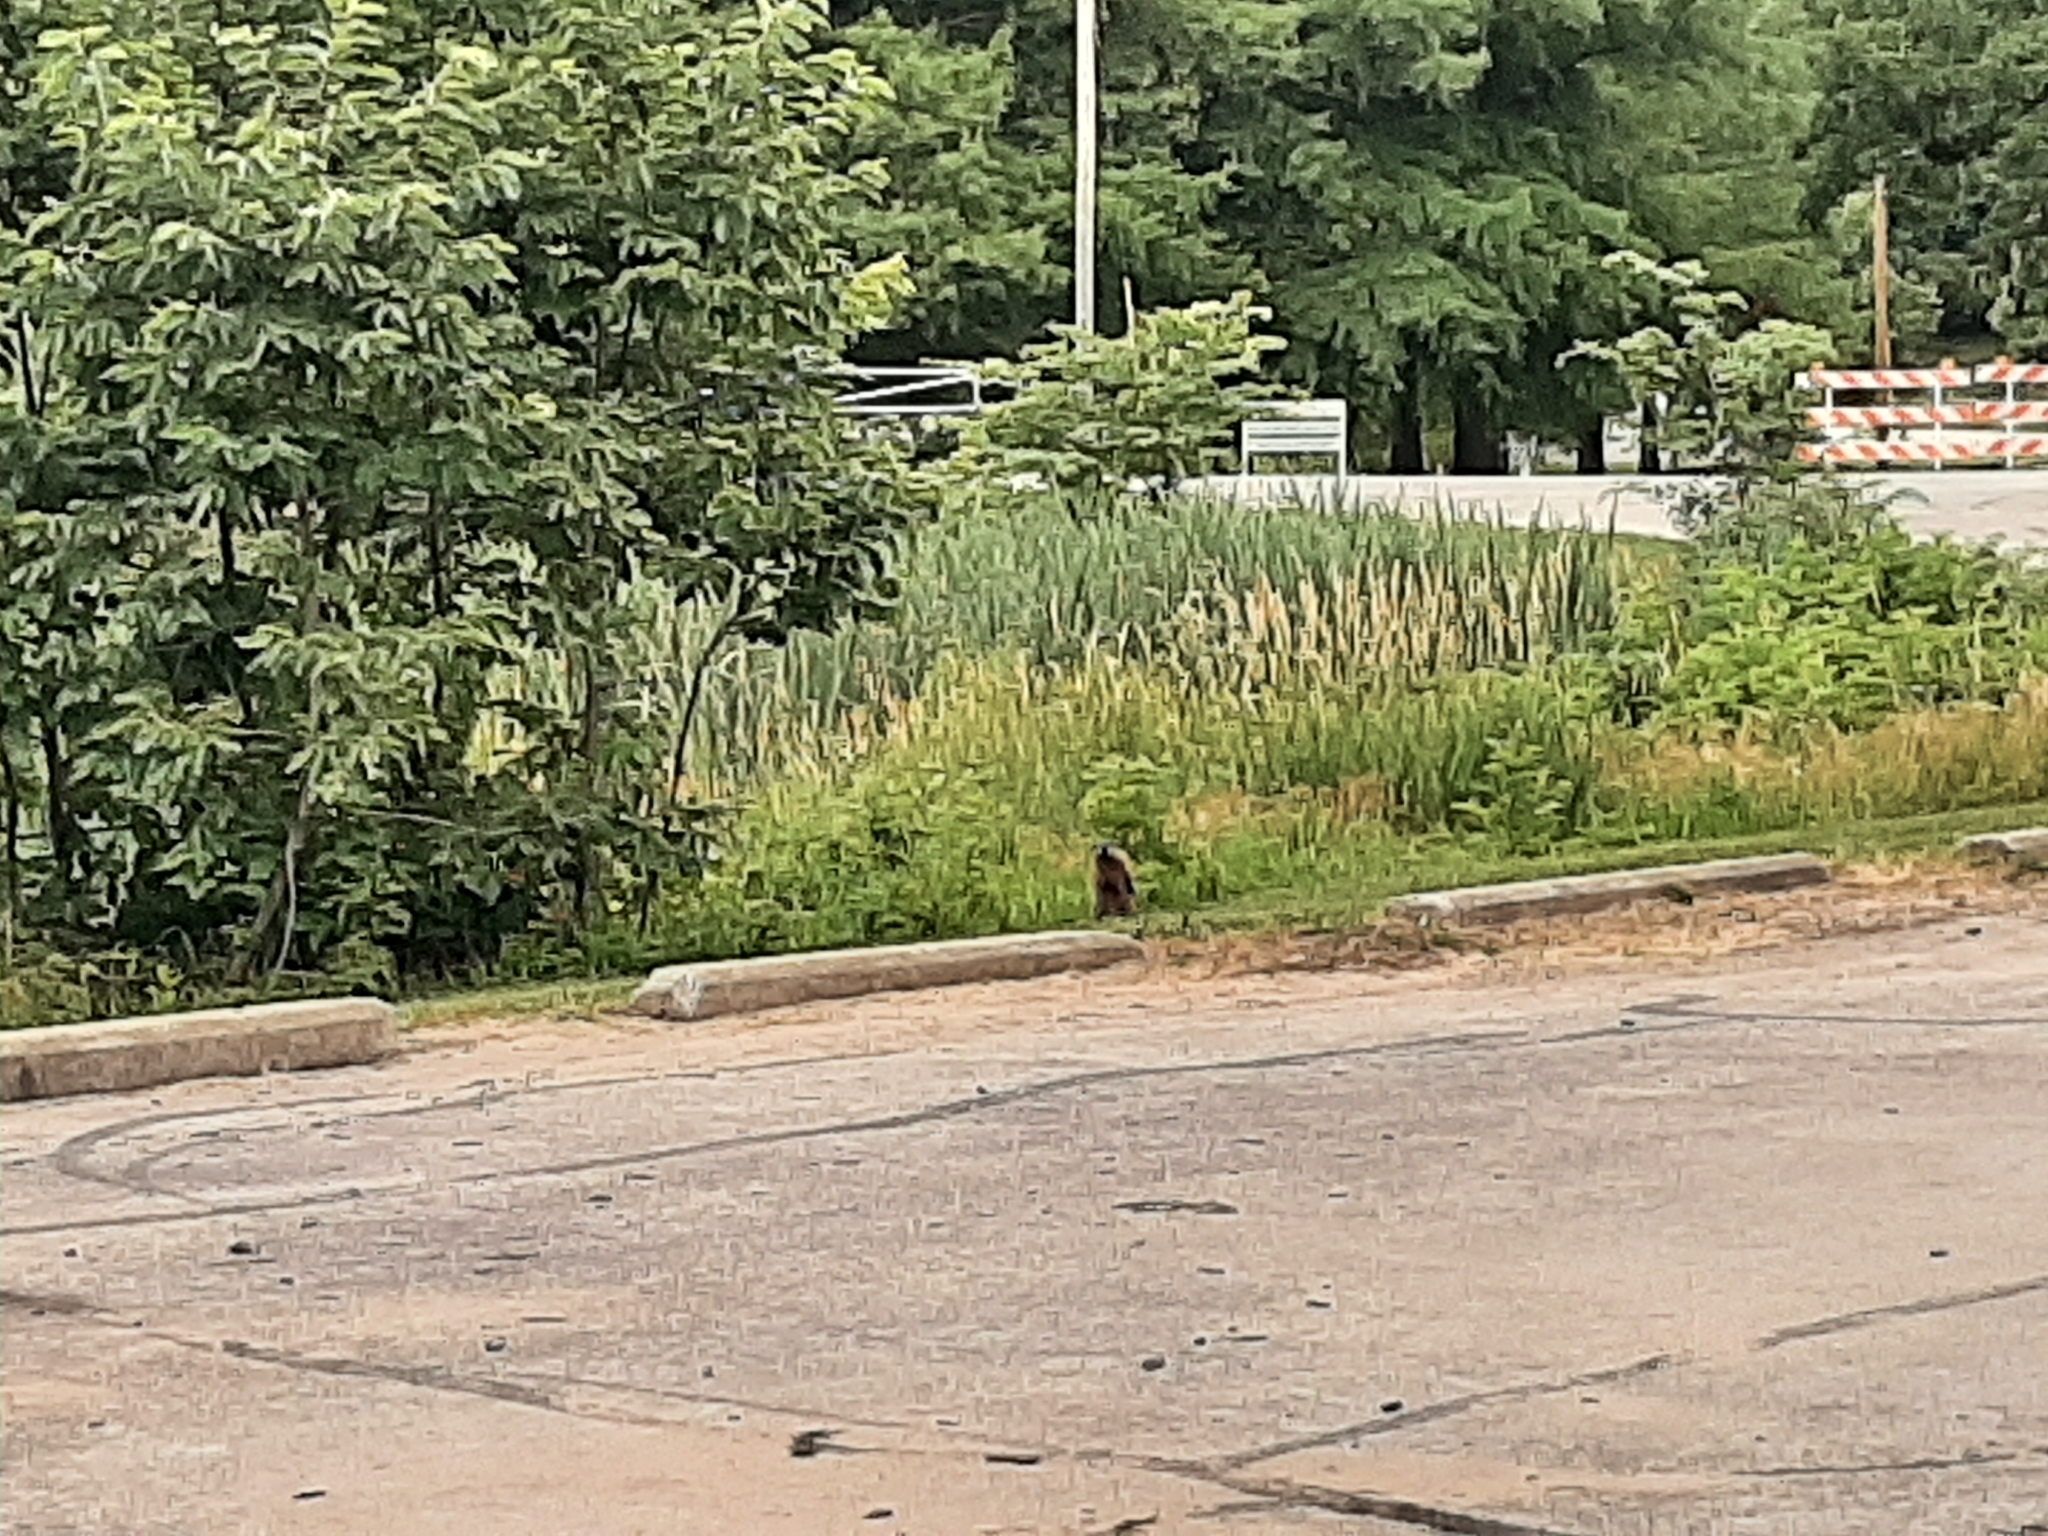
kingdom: Animalia
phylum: Chordata
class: Mammalia
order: Rodentia
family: Sciuridae
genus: Marmota
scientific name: Marmota monax
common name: Groundhog
